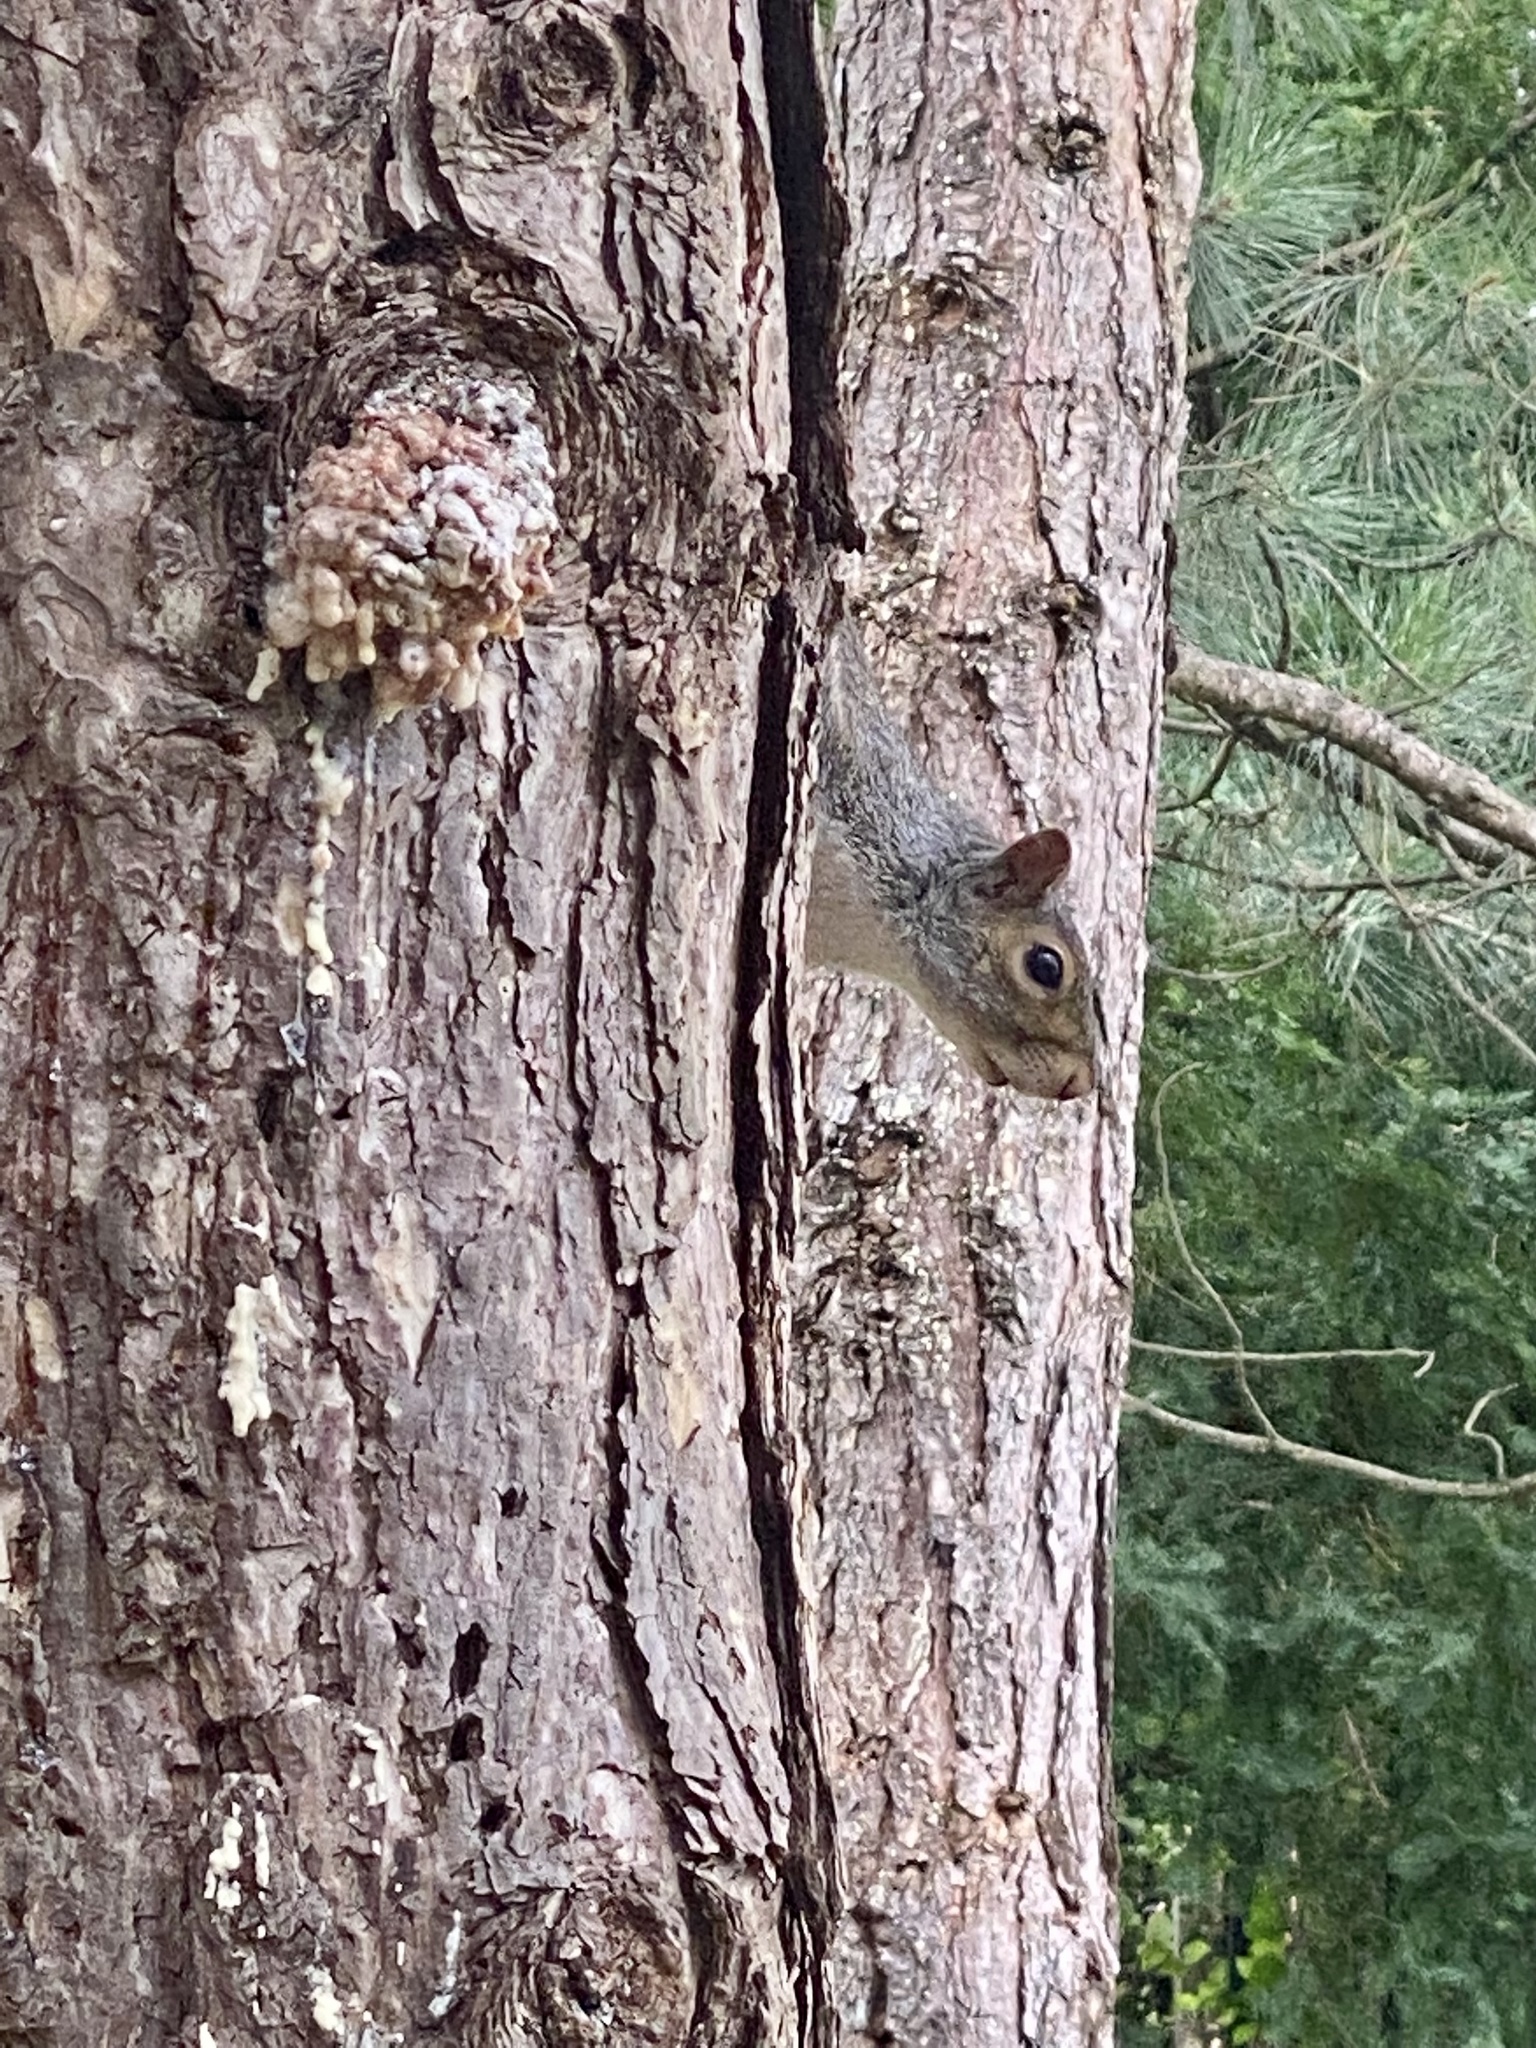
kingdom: Animalia
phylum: Chordata
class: Mammalia
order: Rodentia
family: Sciuridae
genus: Sciurus
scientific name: Sciurus carolinensis
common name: Eastern gray squirrel
